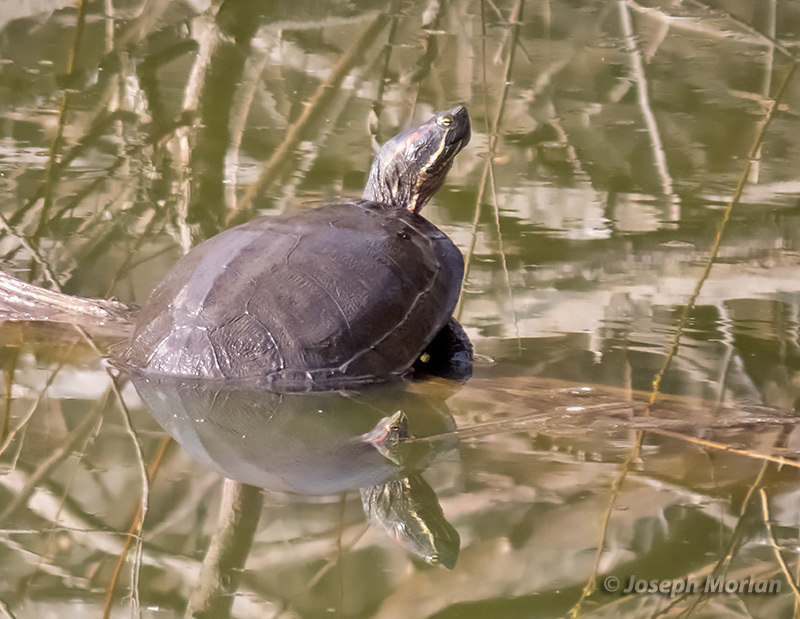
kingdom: Animalia
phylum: Chordata
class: Testudines
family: Emydidae
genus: Trachemys
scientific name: Trachemys scripta
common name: Slider
